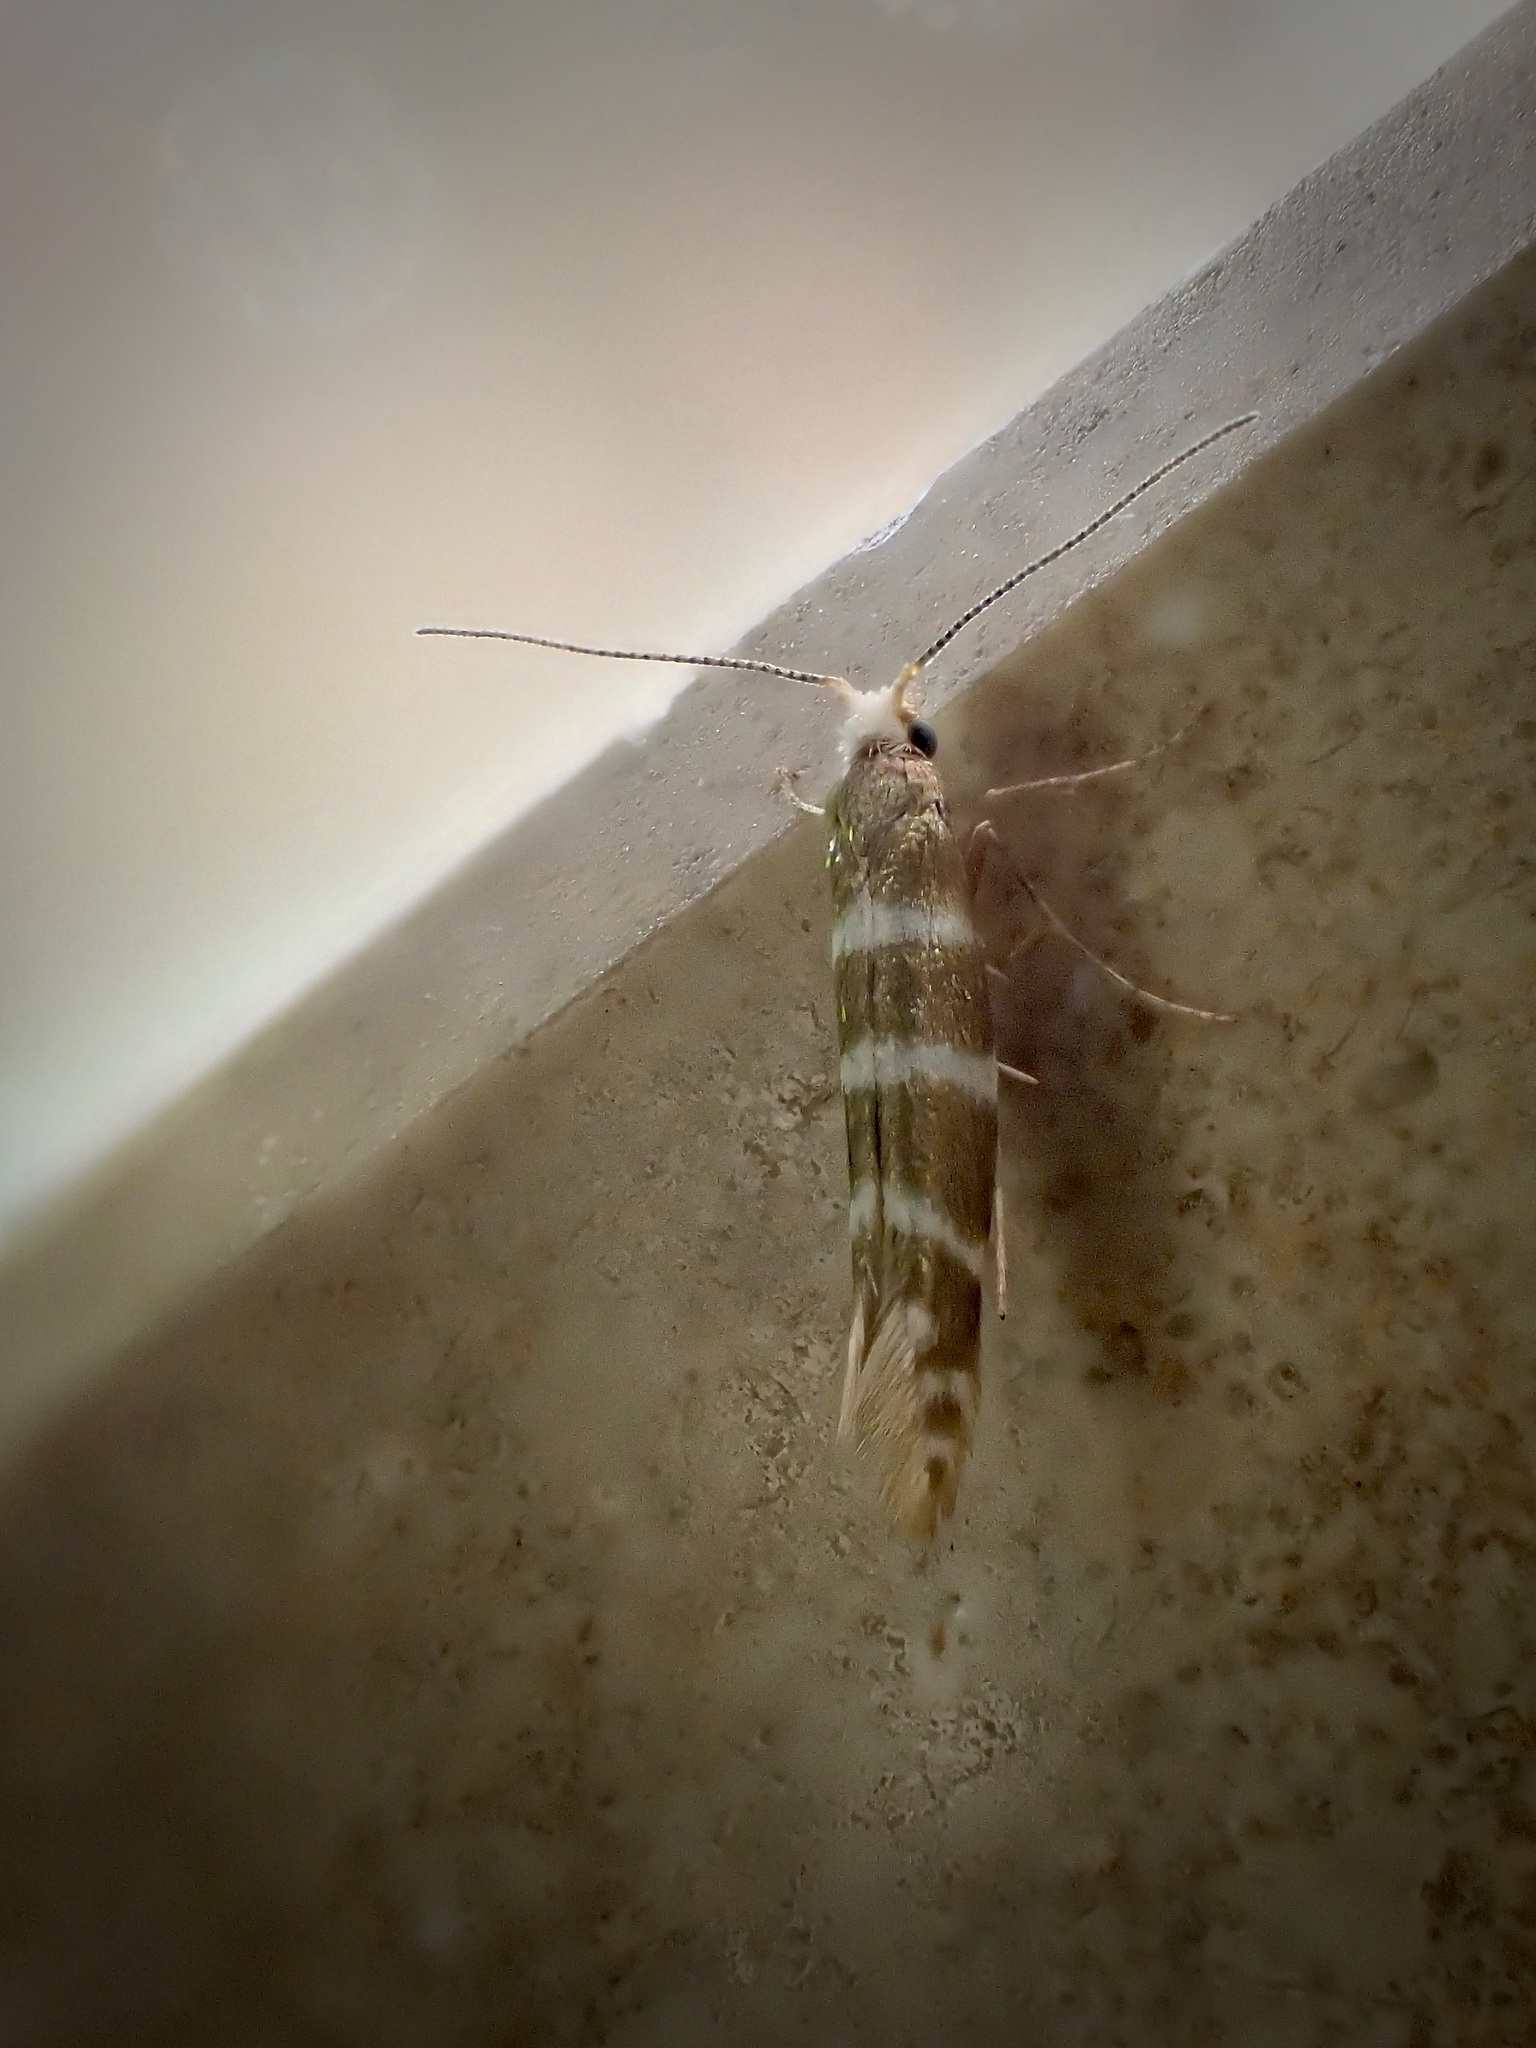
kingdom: Animalia
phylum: Arthropoda
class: Insecta
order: Lepidoptera
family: Argyresthiidae
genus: Argyresthia
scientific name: Argyresthia trifasciata
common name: Triple-barred argent
